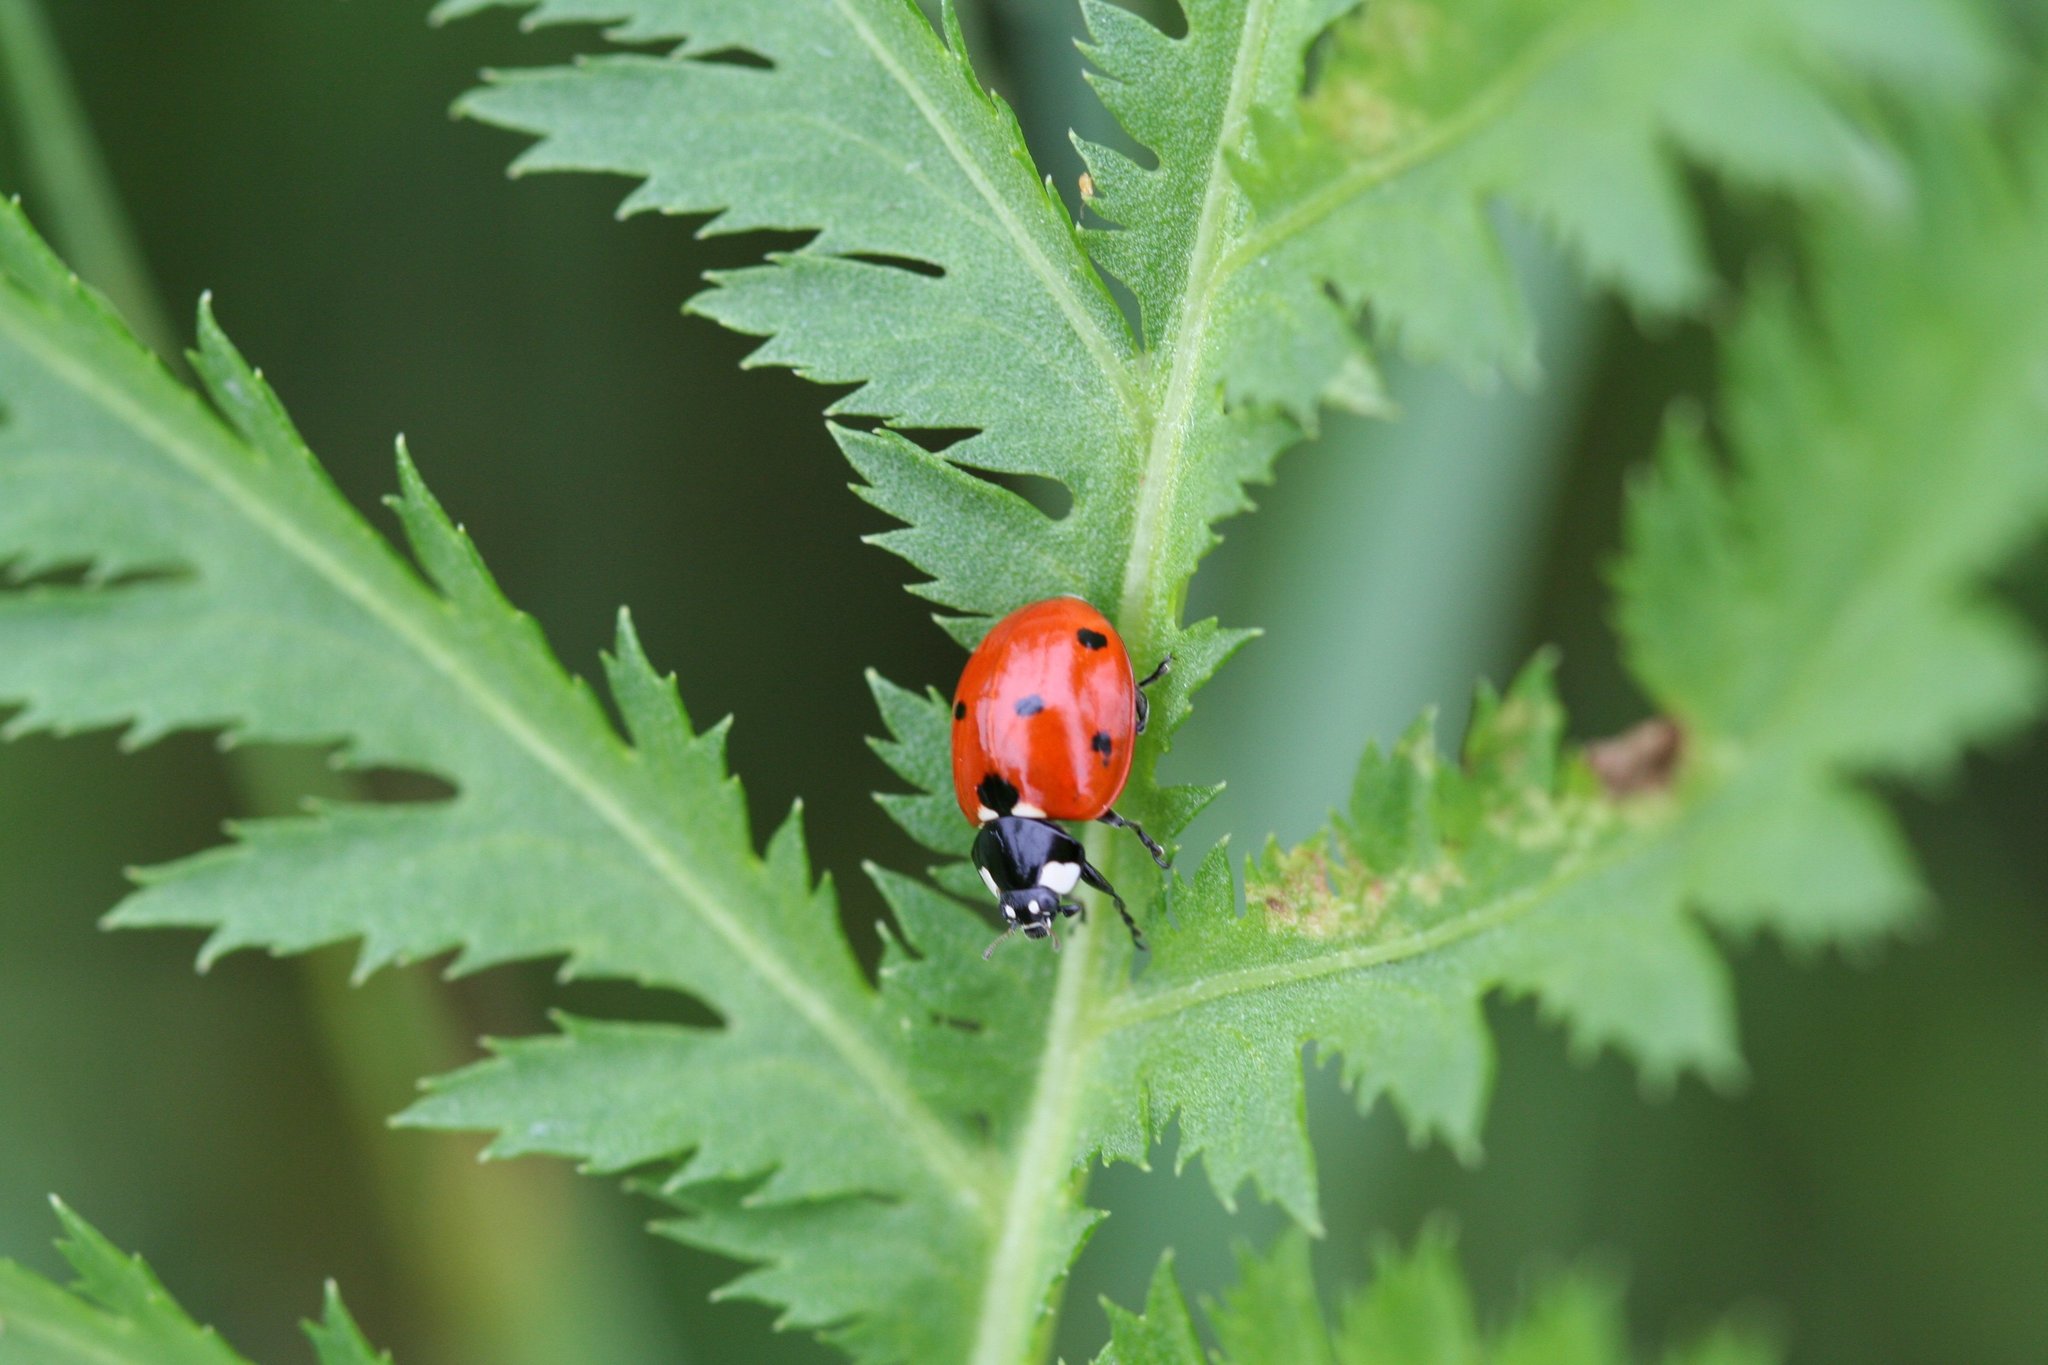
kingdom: Animalia
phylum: Arthropoda
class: Insecta
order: Coleoptera
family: Coccinellidae
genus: Coccinella
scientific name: Coccinella septempunctata
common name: Sevenspotted lady beetle
